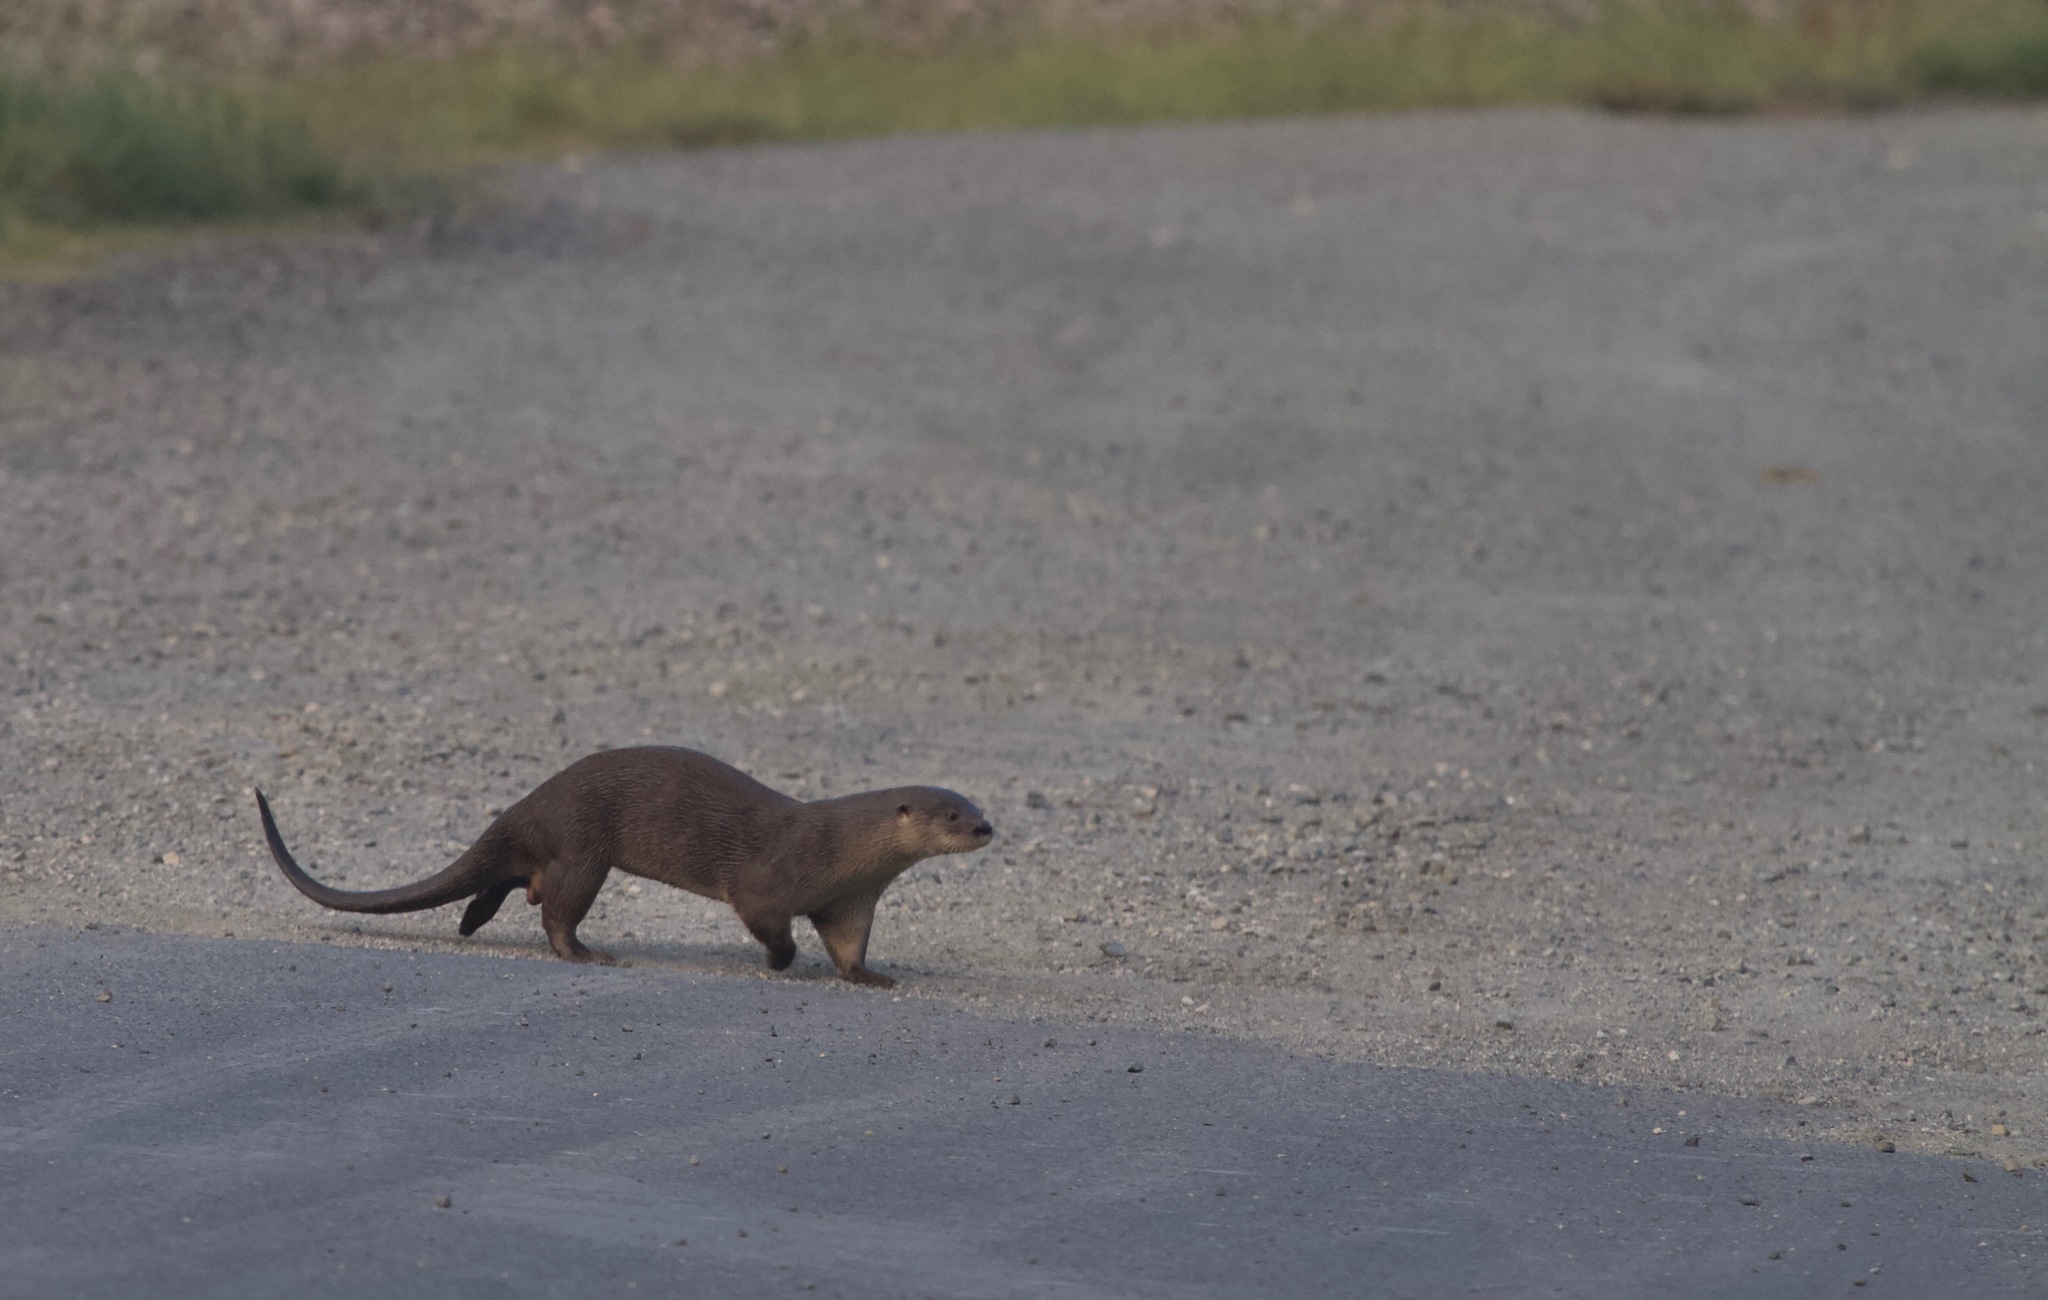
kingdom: Animalia
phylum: Chordata
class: Mammalia
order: Carnivora
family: Mustelidae
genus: Lontra
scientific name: Lontra longicaudis
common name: Neotropical otter
